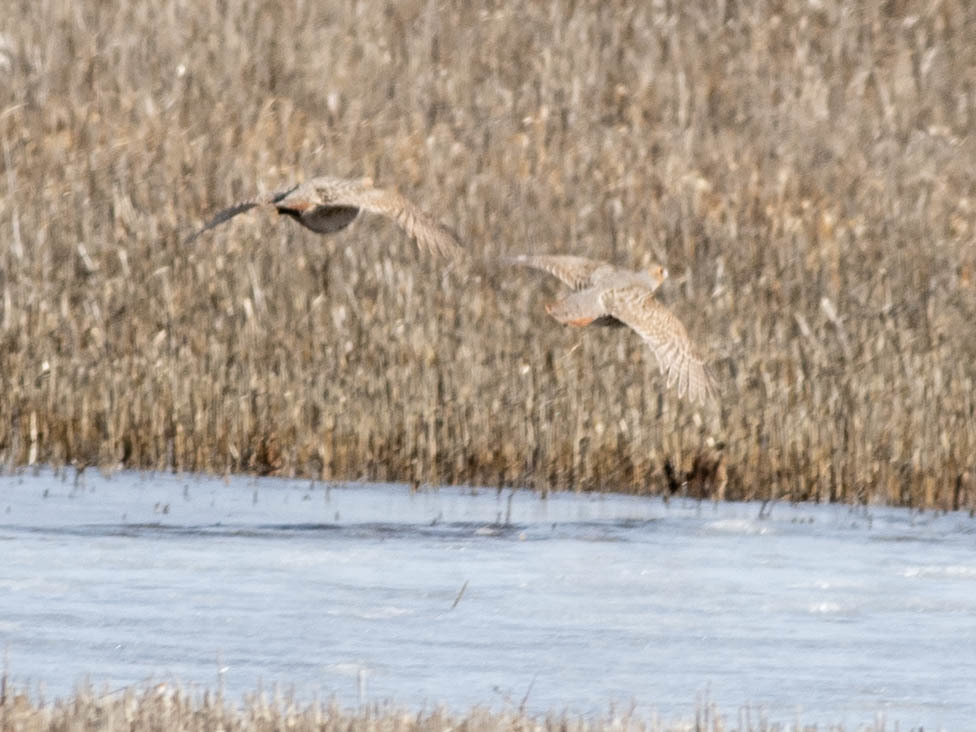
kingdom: Animalia
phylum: Chordata
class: Aves
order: Galliformes
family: Phasianidae
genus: Perdix
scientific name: Perdix perdix
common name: Grey partridge
